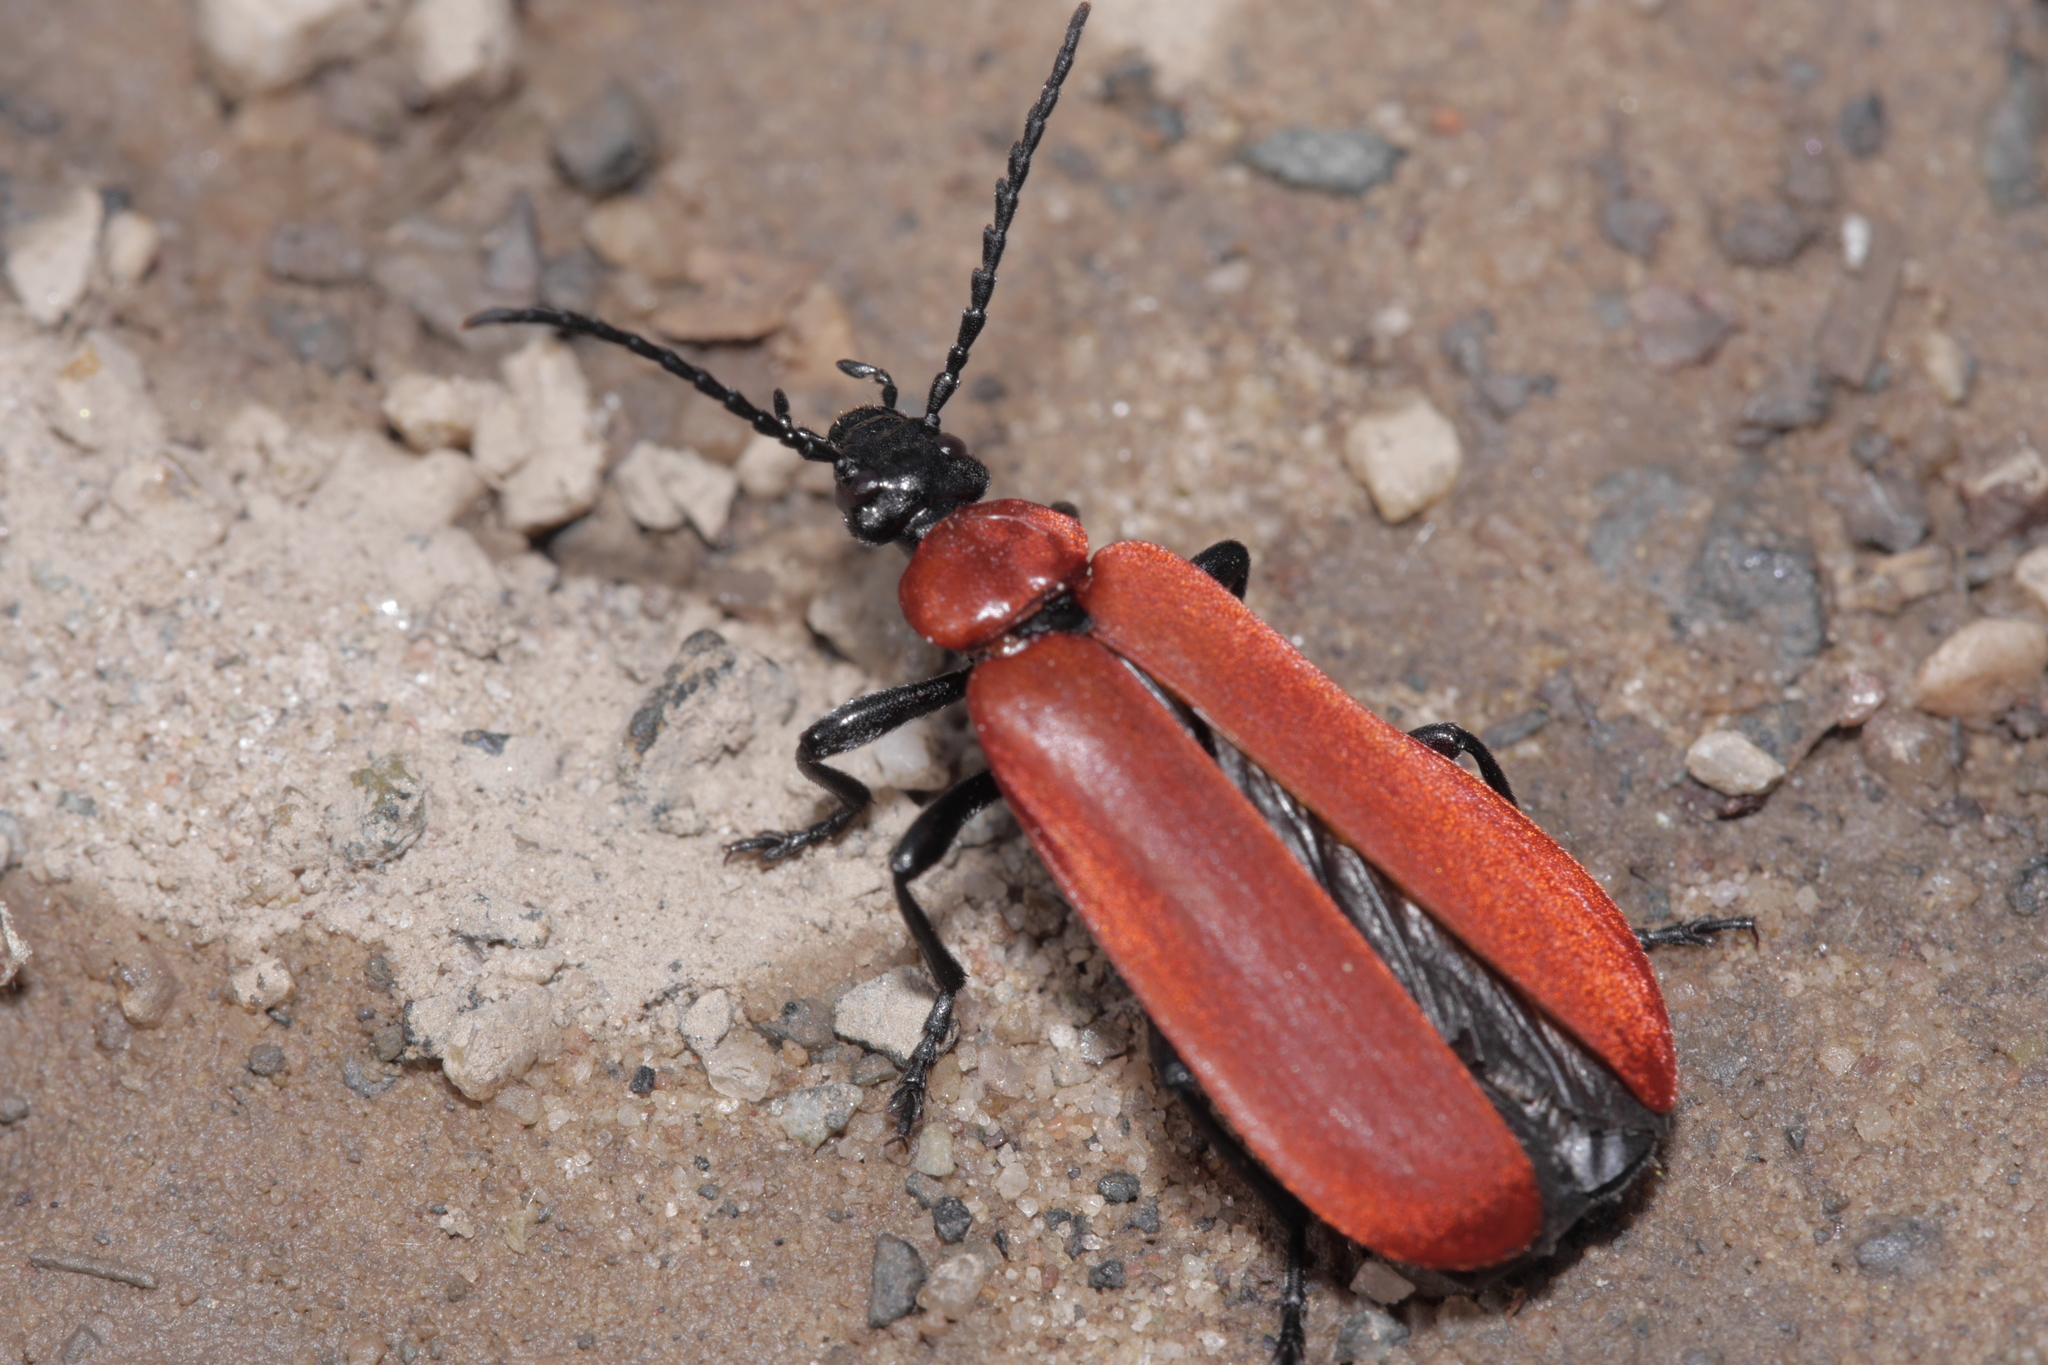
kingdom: Animalia
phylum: Arthropoda
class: Insecta
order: Coleoptera
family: Pyrochroidae
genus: Pyrochroa
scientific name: Pyrochroa coccinea
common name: Black-headed cardinal beetle
